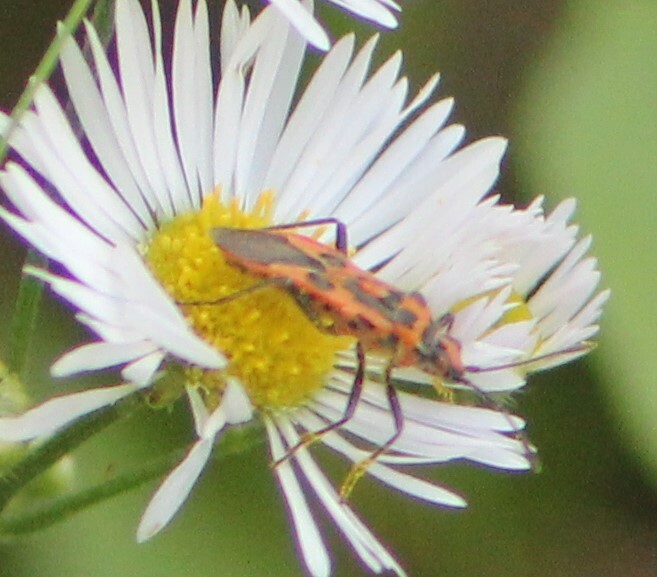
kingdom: Animalia
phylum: Arthropoda
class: Insecta
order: Hemiptera
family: Rhopalidae
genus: Corizus
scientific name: Corizus hyoscyami
